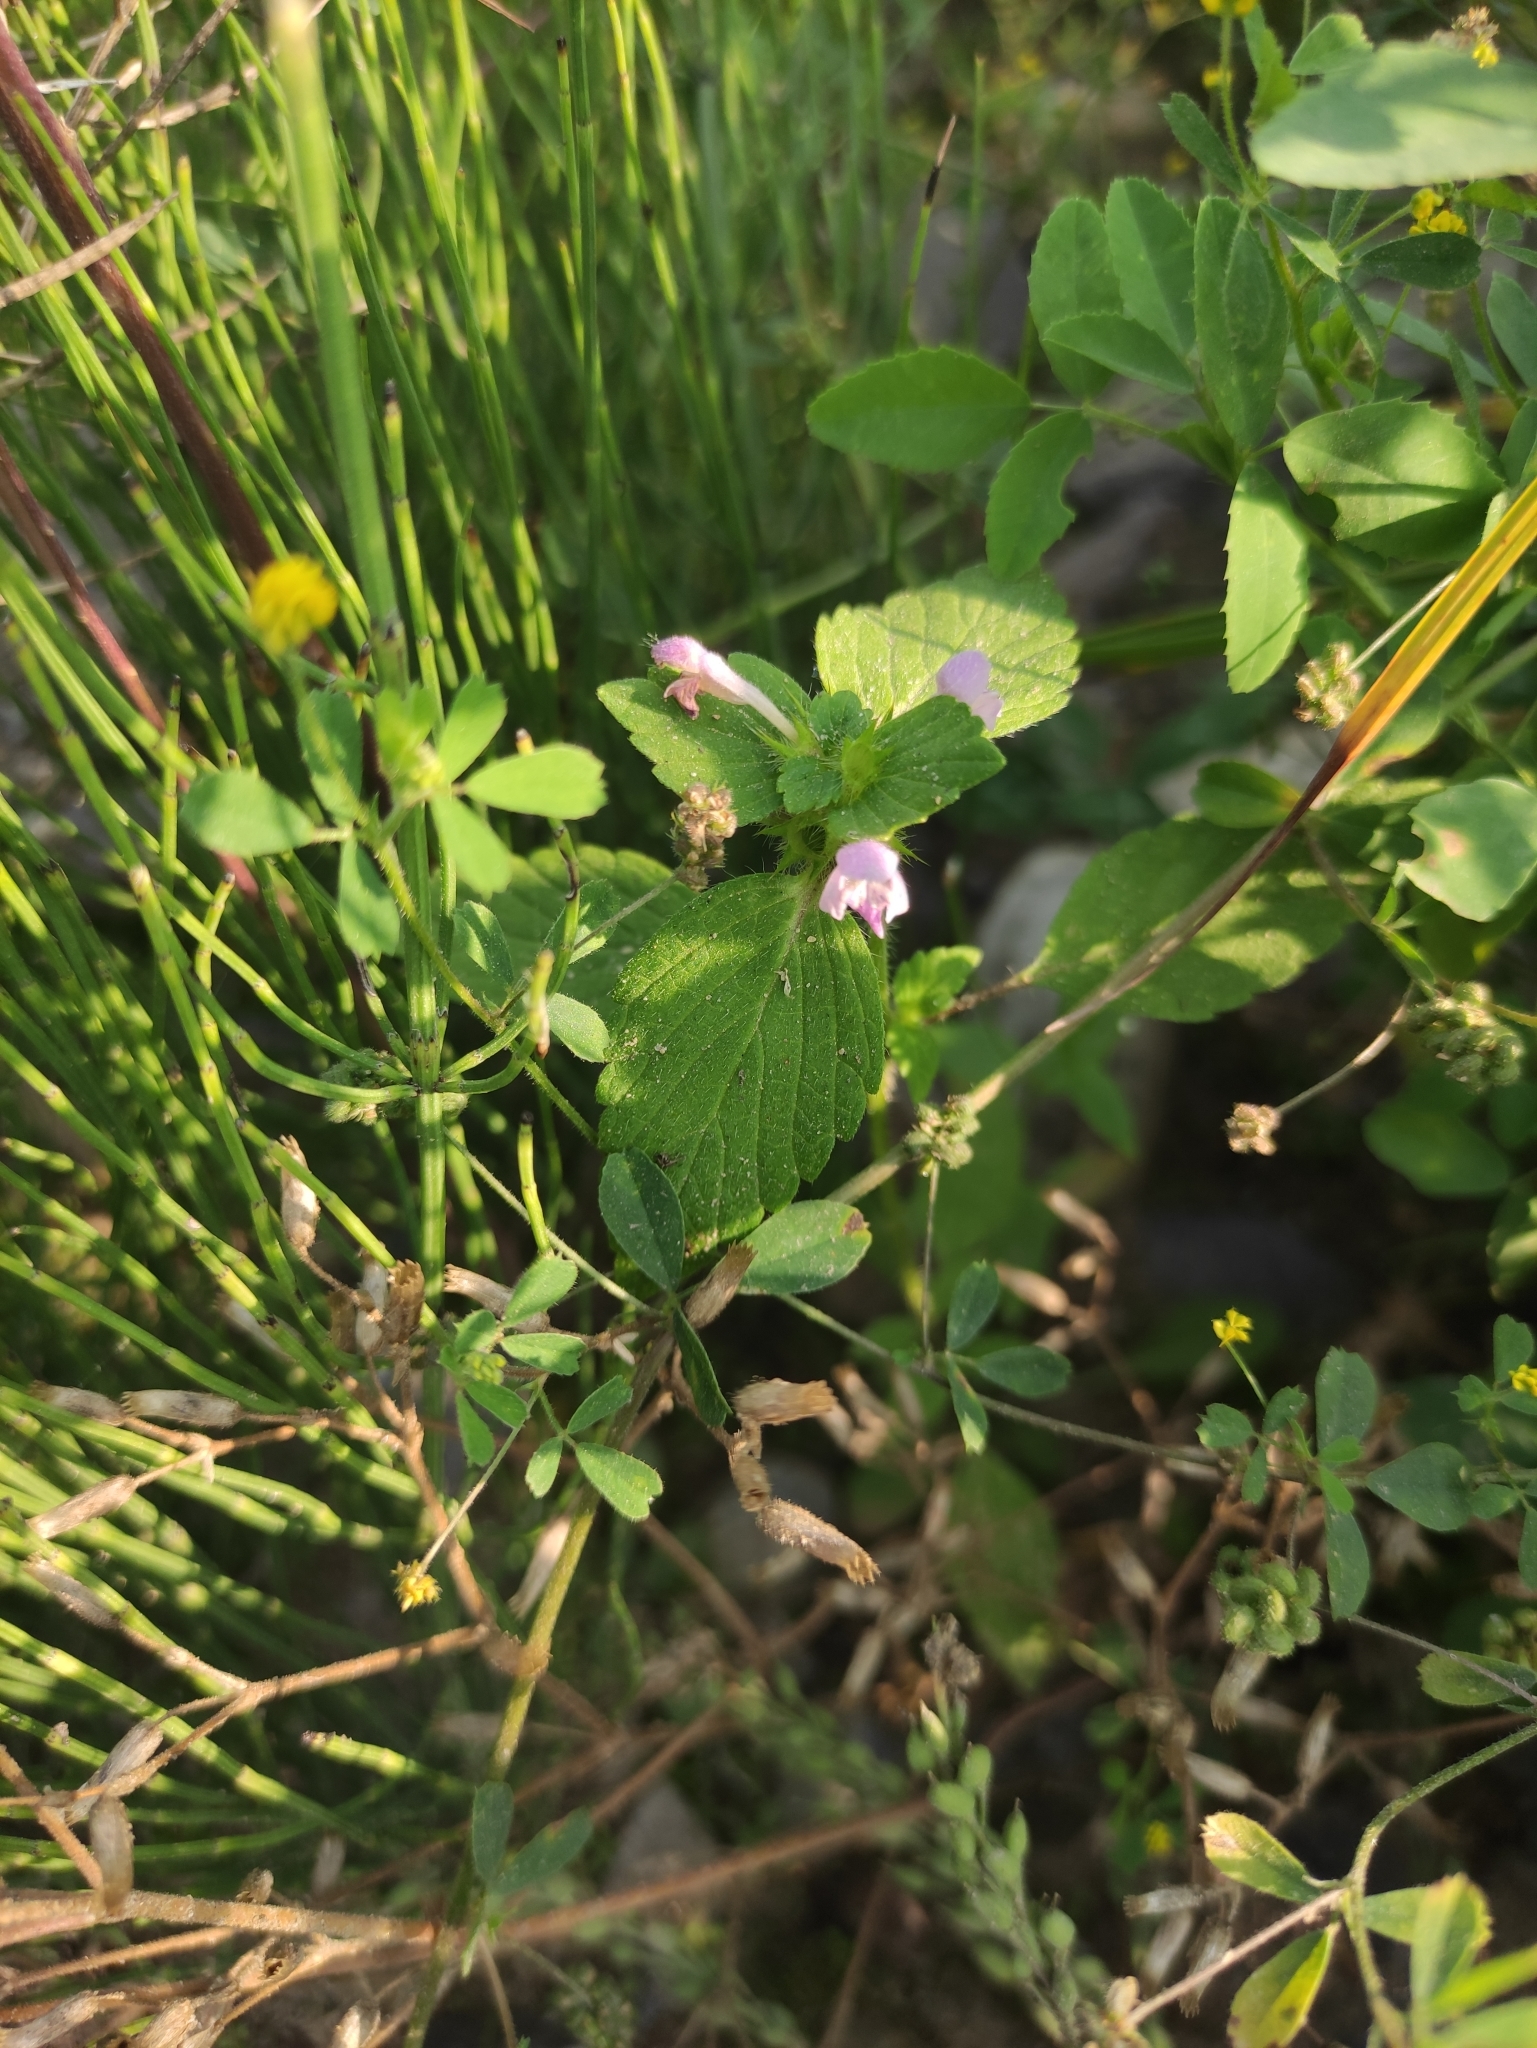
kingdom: Plantae
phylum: Tracheophyta
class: Magnoliopsida
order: Lamiales
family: Lamiaceae
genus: Galeopsis
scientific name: Galeopsis bifida
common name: Bifid hemp-nettle
